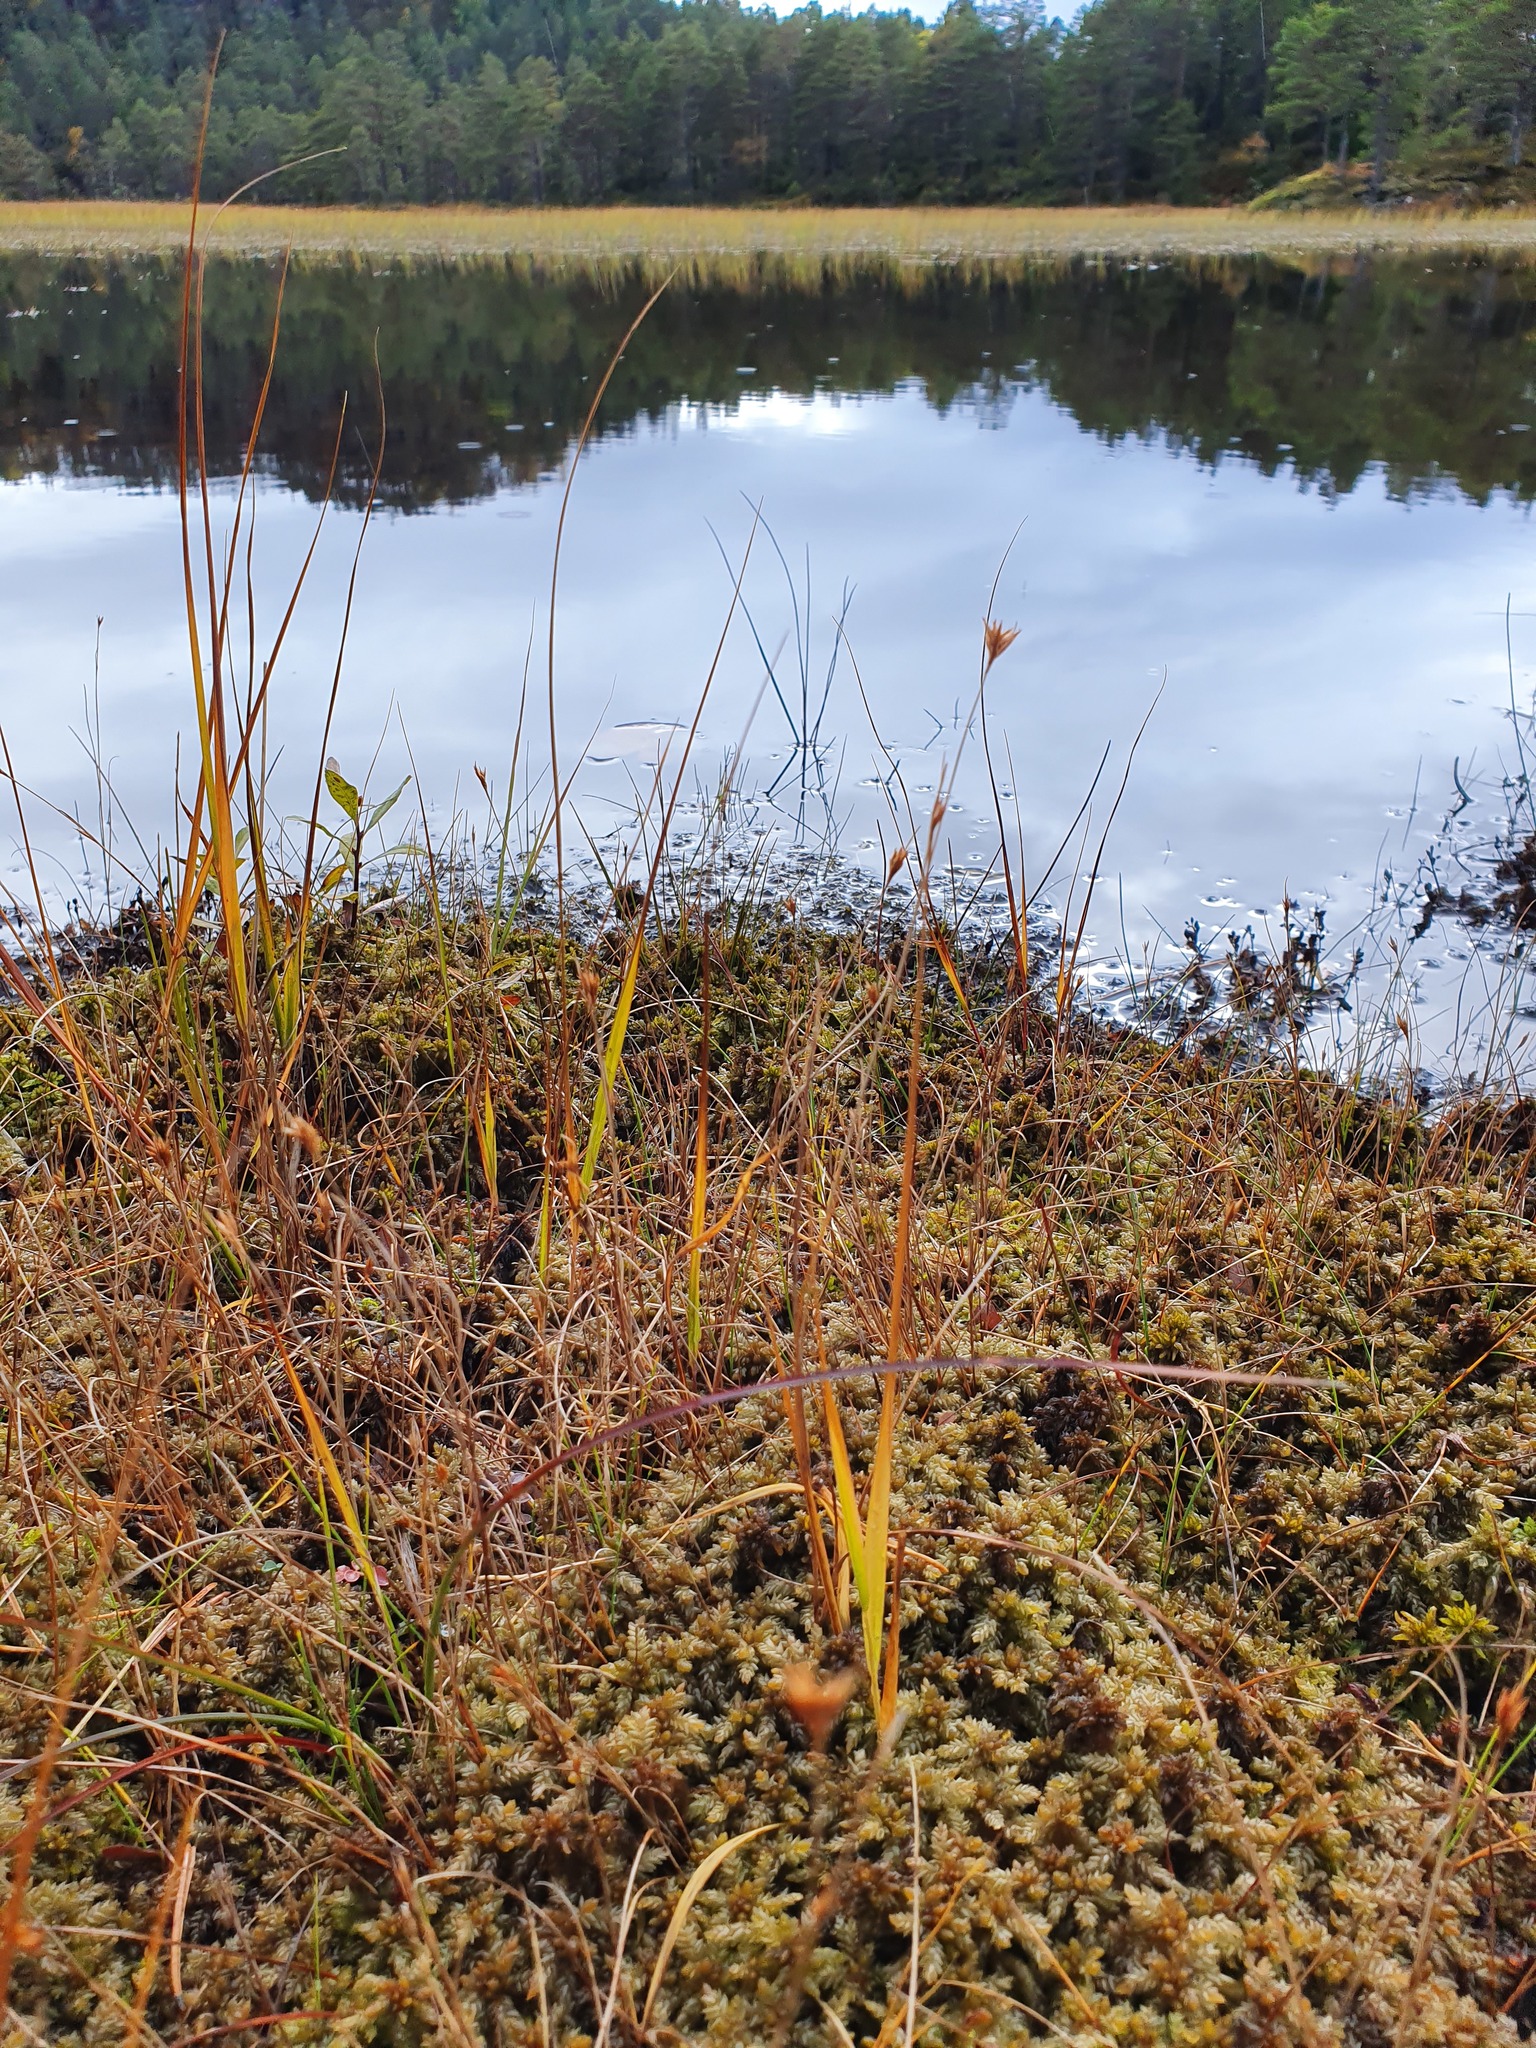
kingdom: Plantae
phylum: Tracheophyta
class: Liliopsida
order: Poales
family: Cyperaceae
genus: Rhynchospora
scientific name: Rhynchospora alba
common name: White beak-sedge
